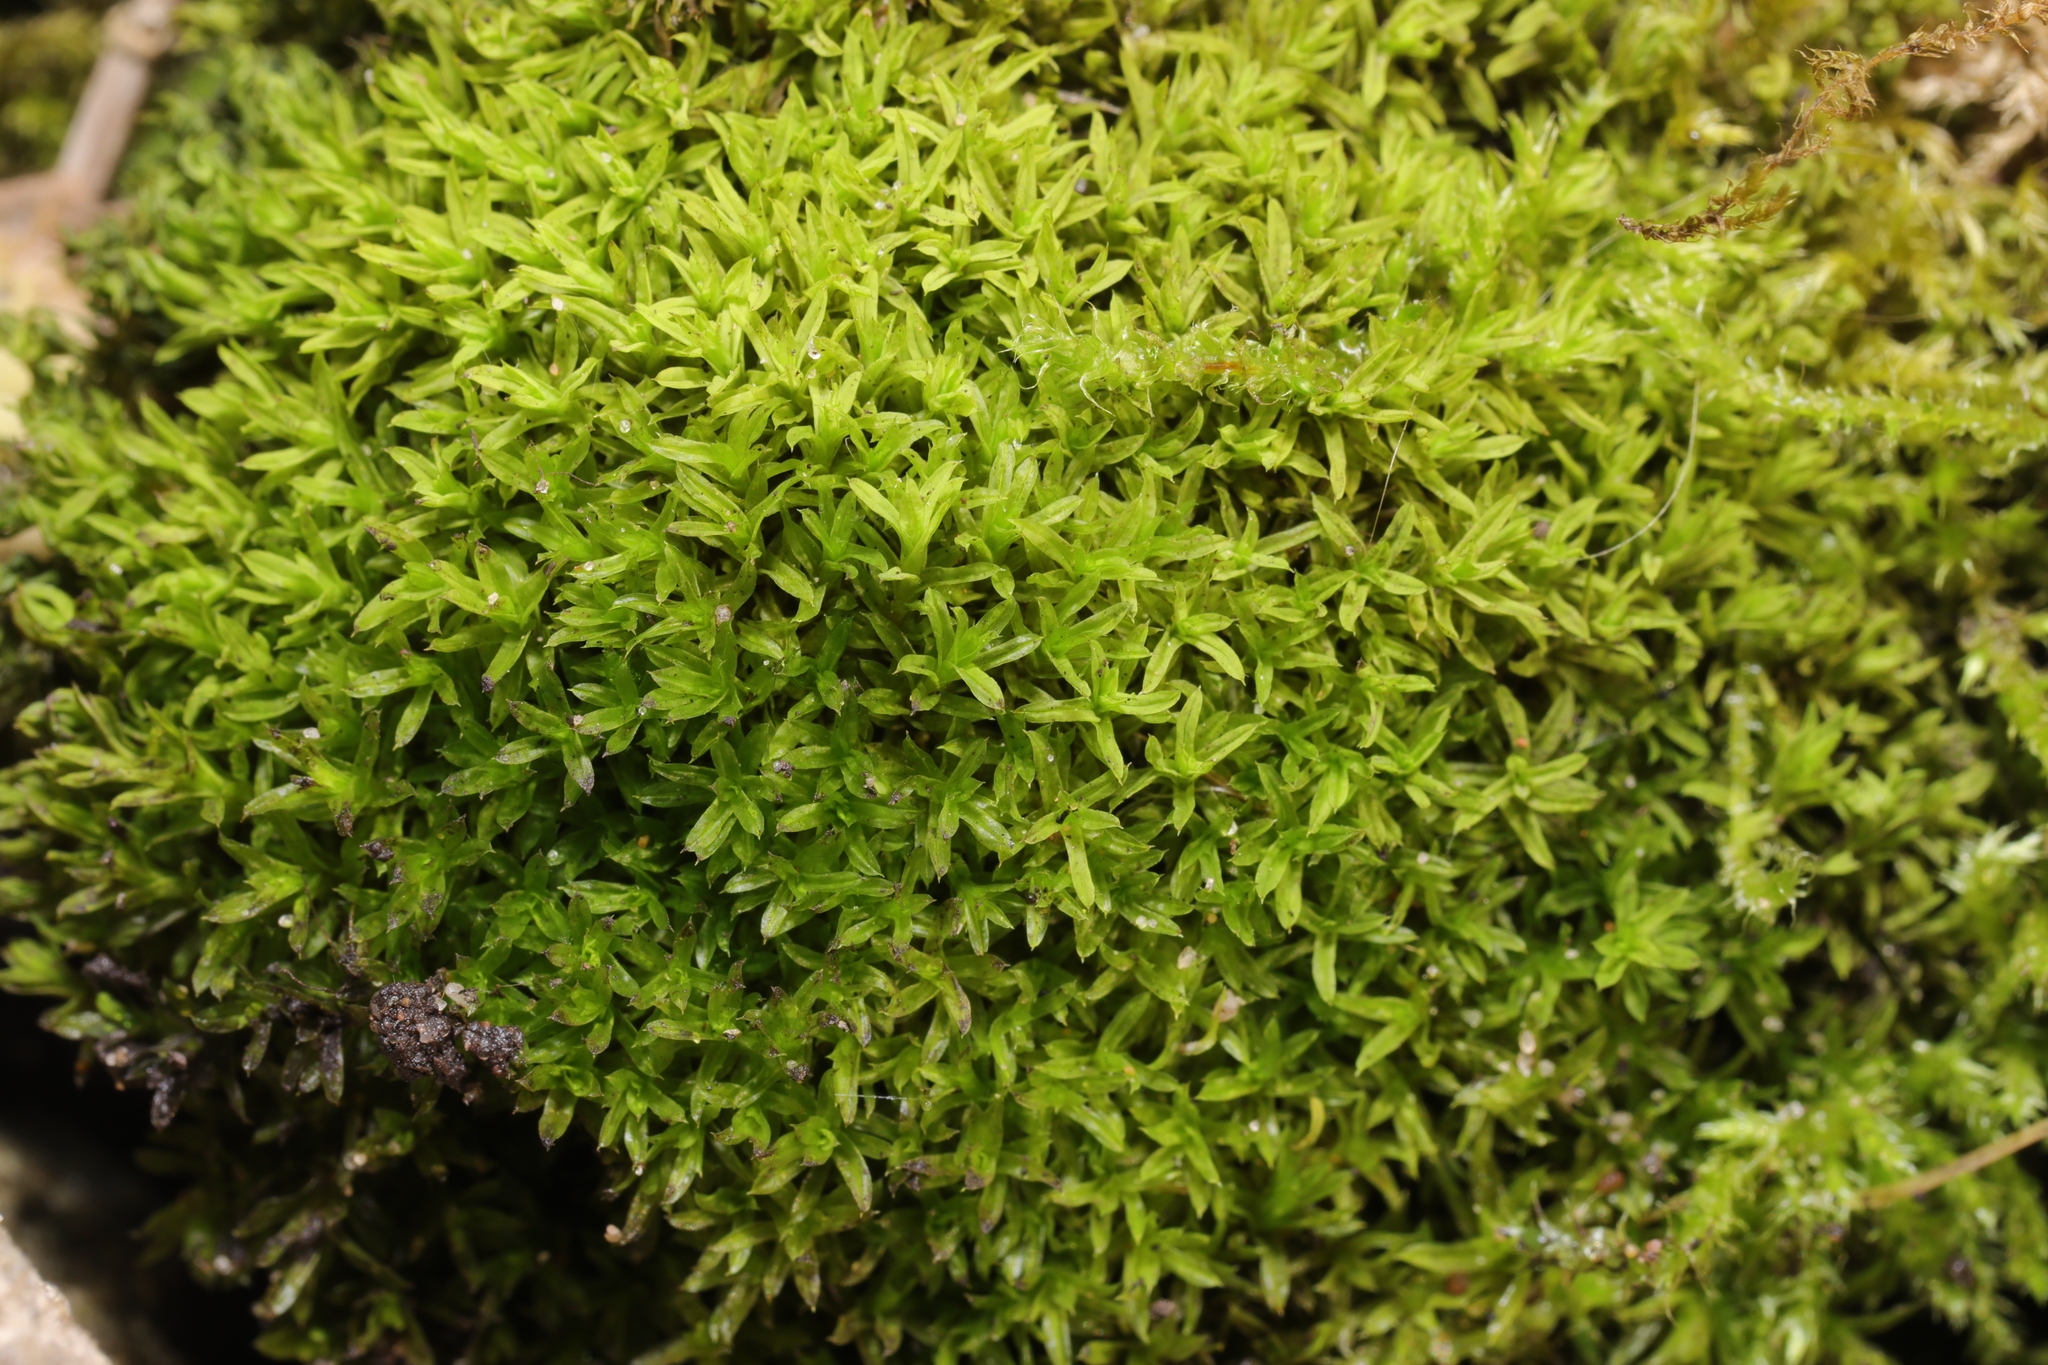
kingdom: Plantae
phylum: Bryophyta
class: Bryopsida
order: Pottiales
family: Pottiaceae
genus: Barbula
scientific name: Barbula unguiculata
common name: Prickly beard moss
